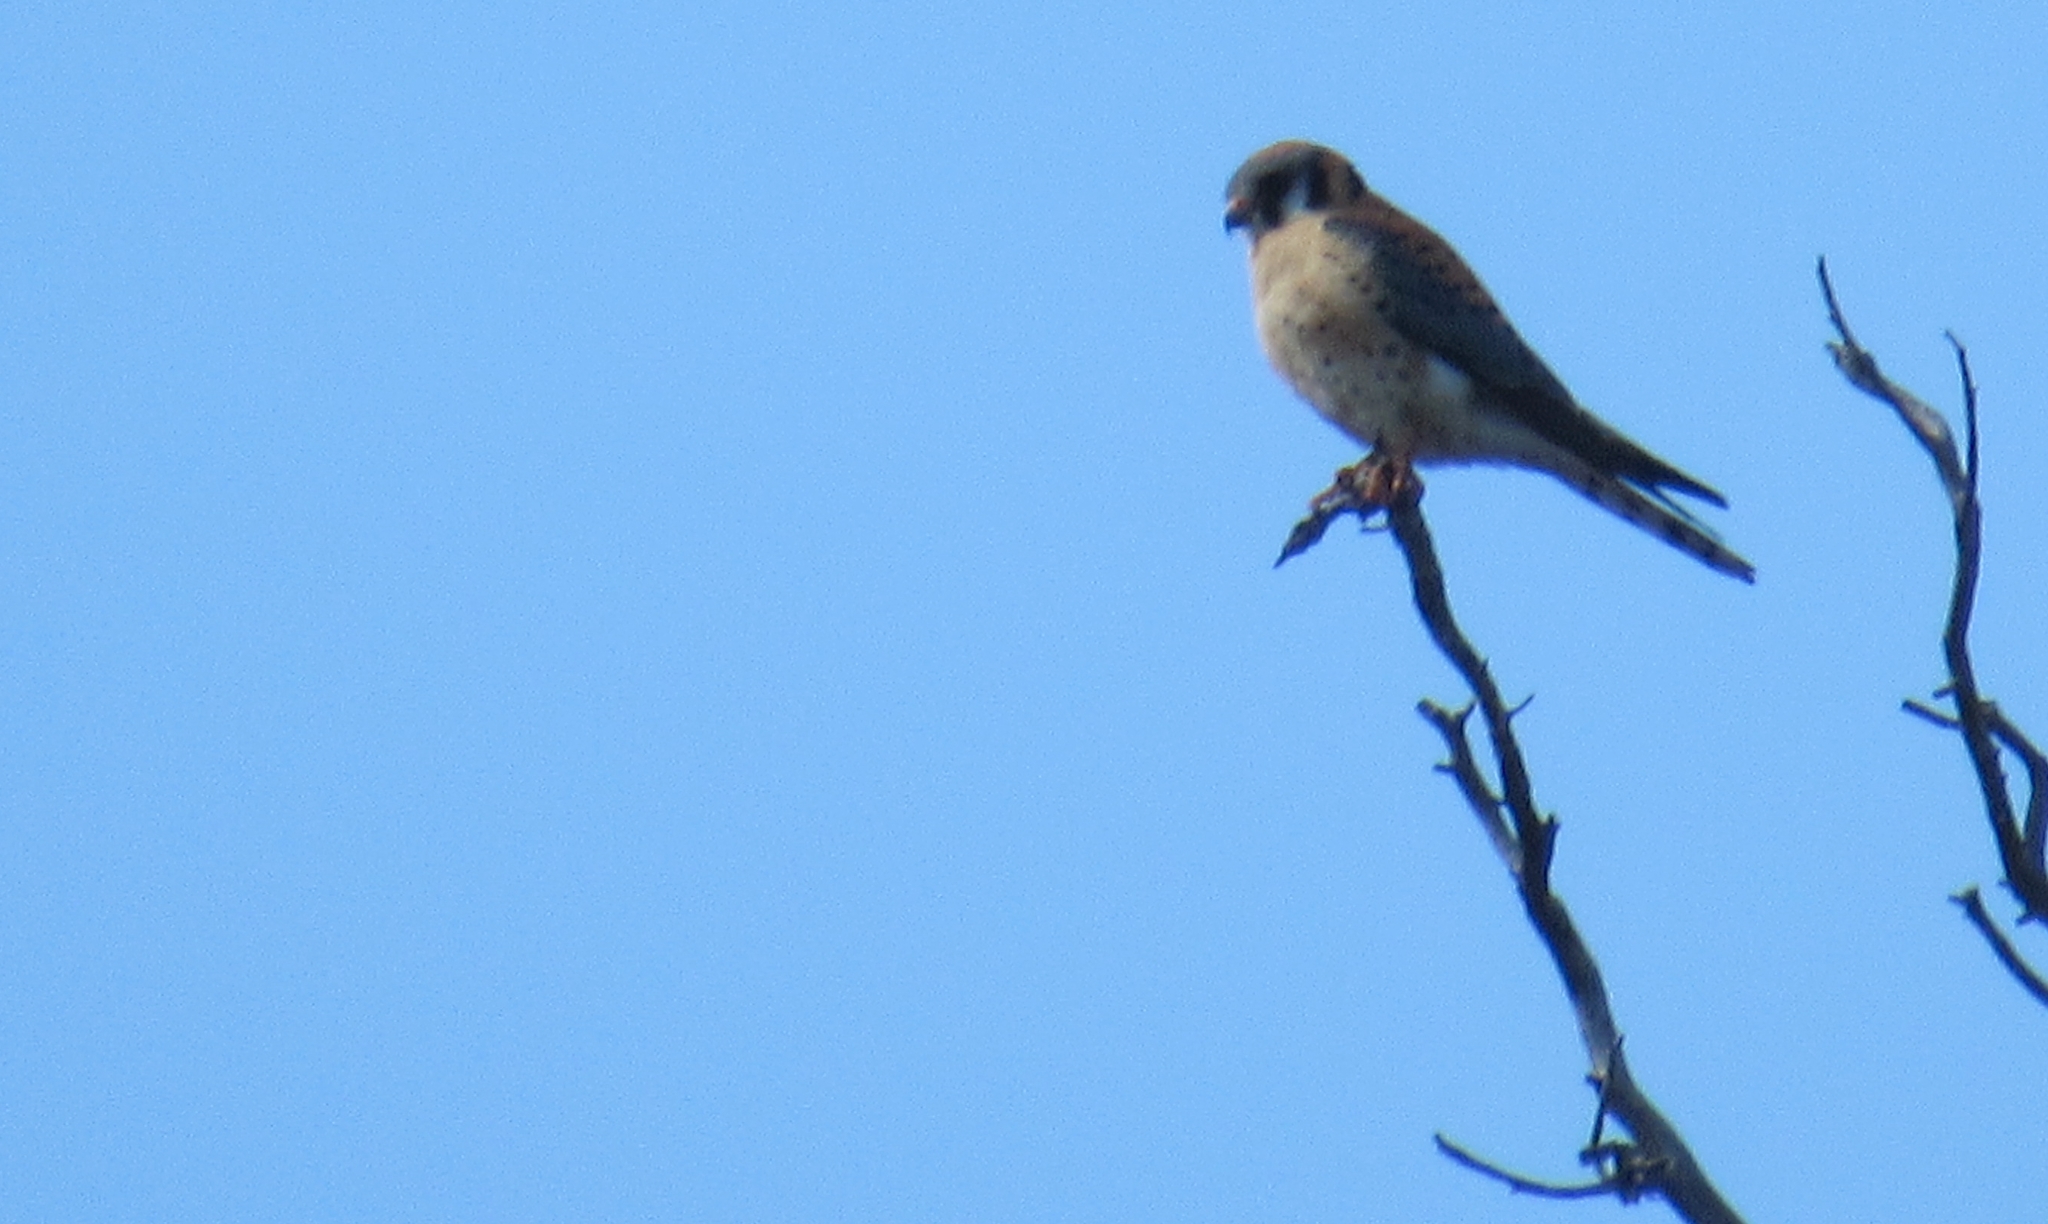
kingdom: Animalia
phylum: Chordata
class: Aves
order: Falconiformes
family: Falconidae
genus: Falco
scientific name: Falco sparverius
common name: American kestrel
